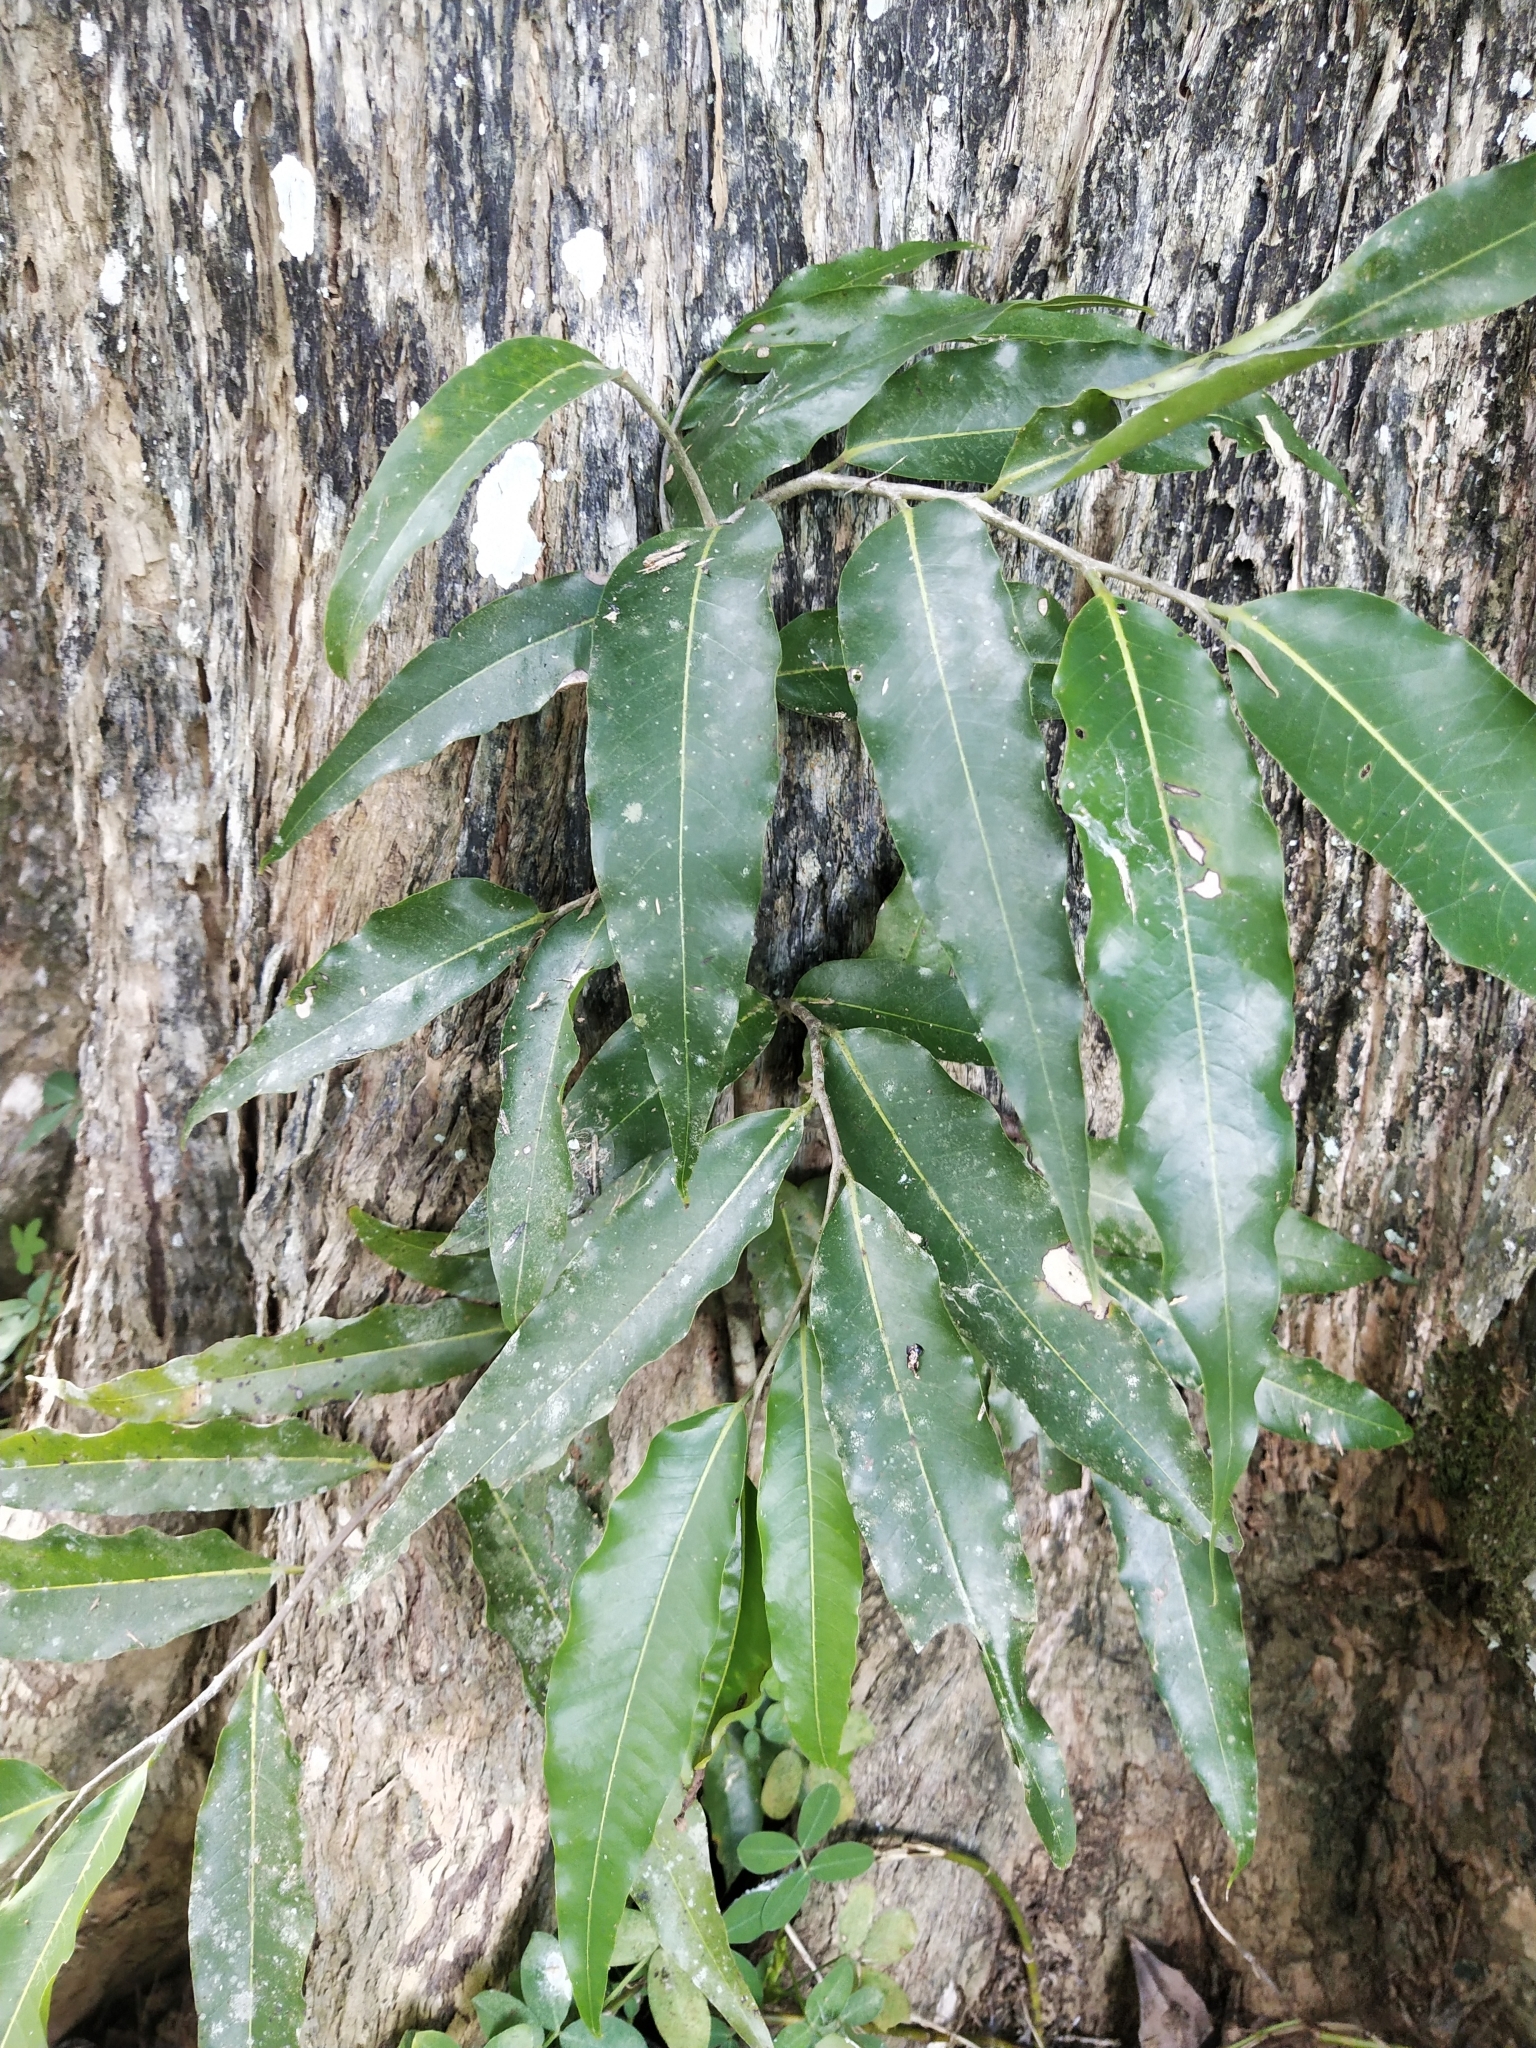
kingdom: Plantae
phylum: Tracheophyta
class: Magnoliopsida
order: Magnoliales
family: Annonaceae
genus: Polyalthia
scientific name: Polyalthia longifolia
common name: Cemetery-tree
